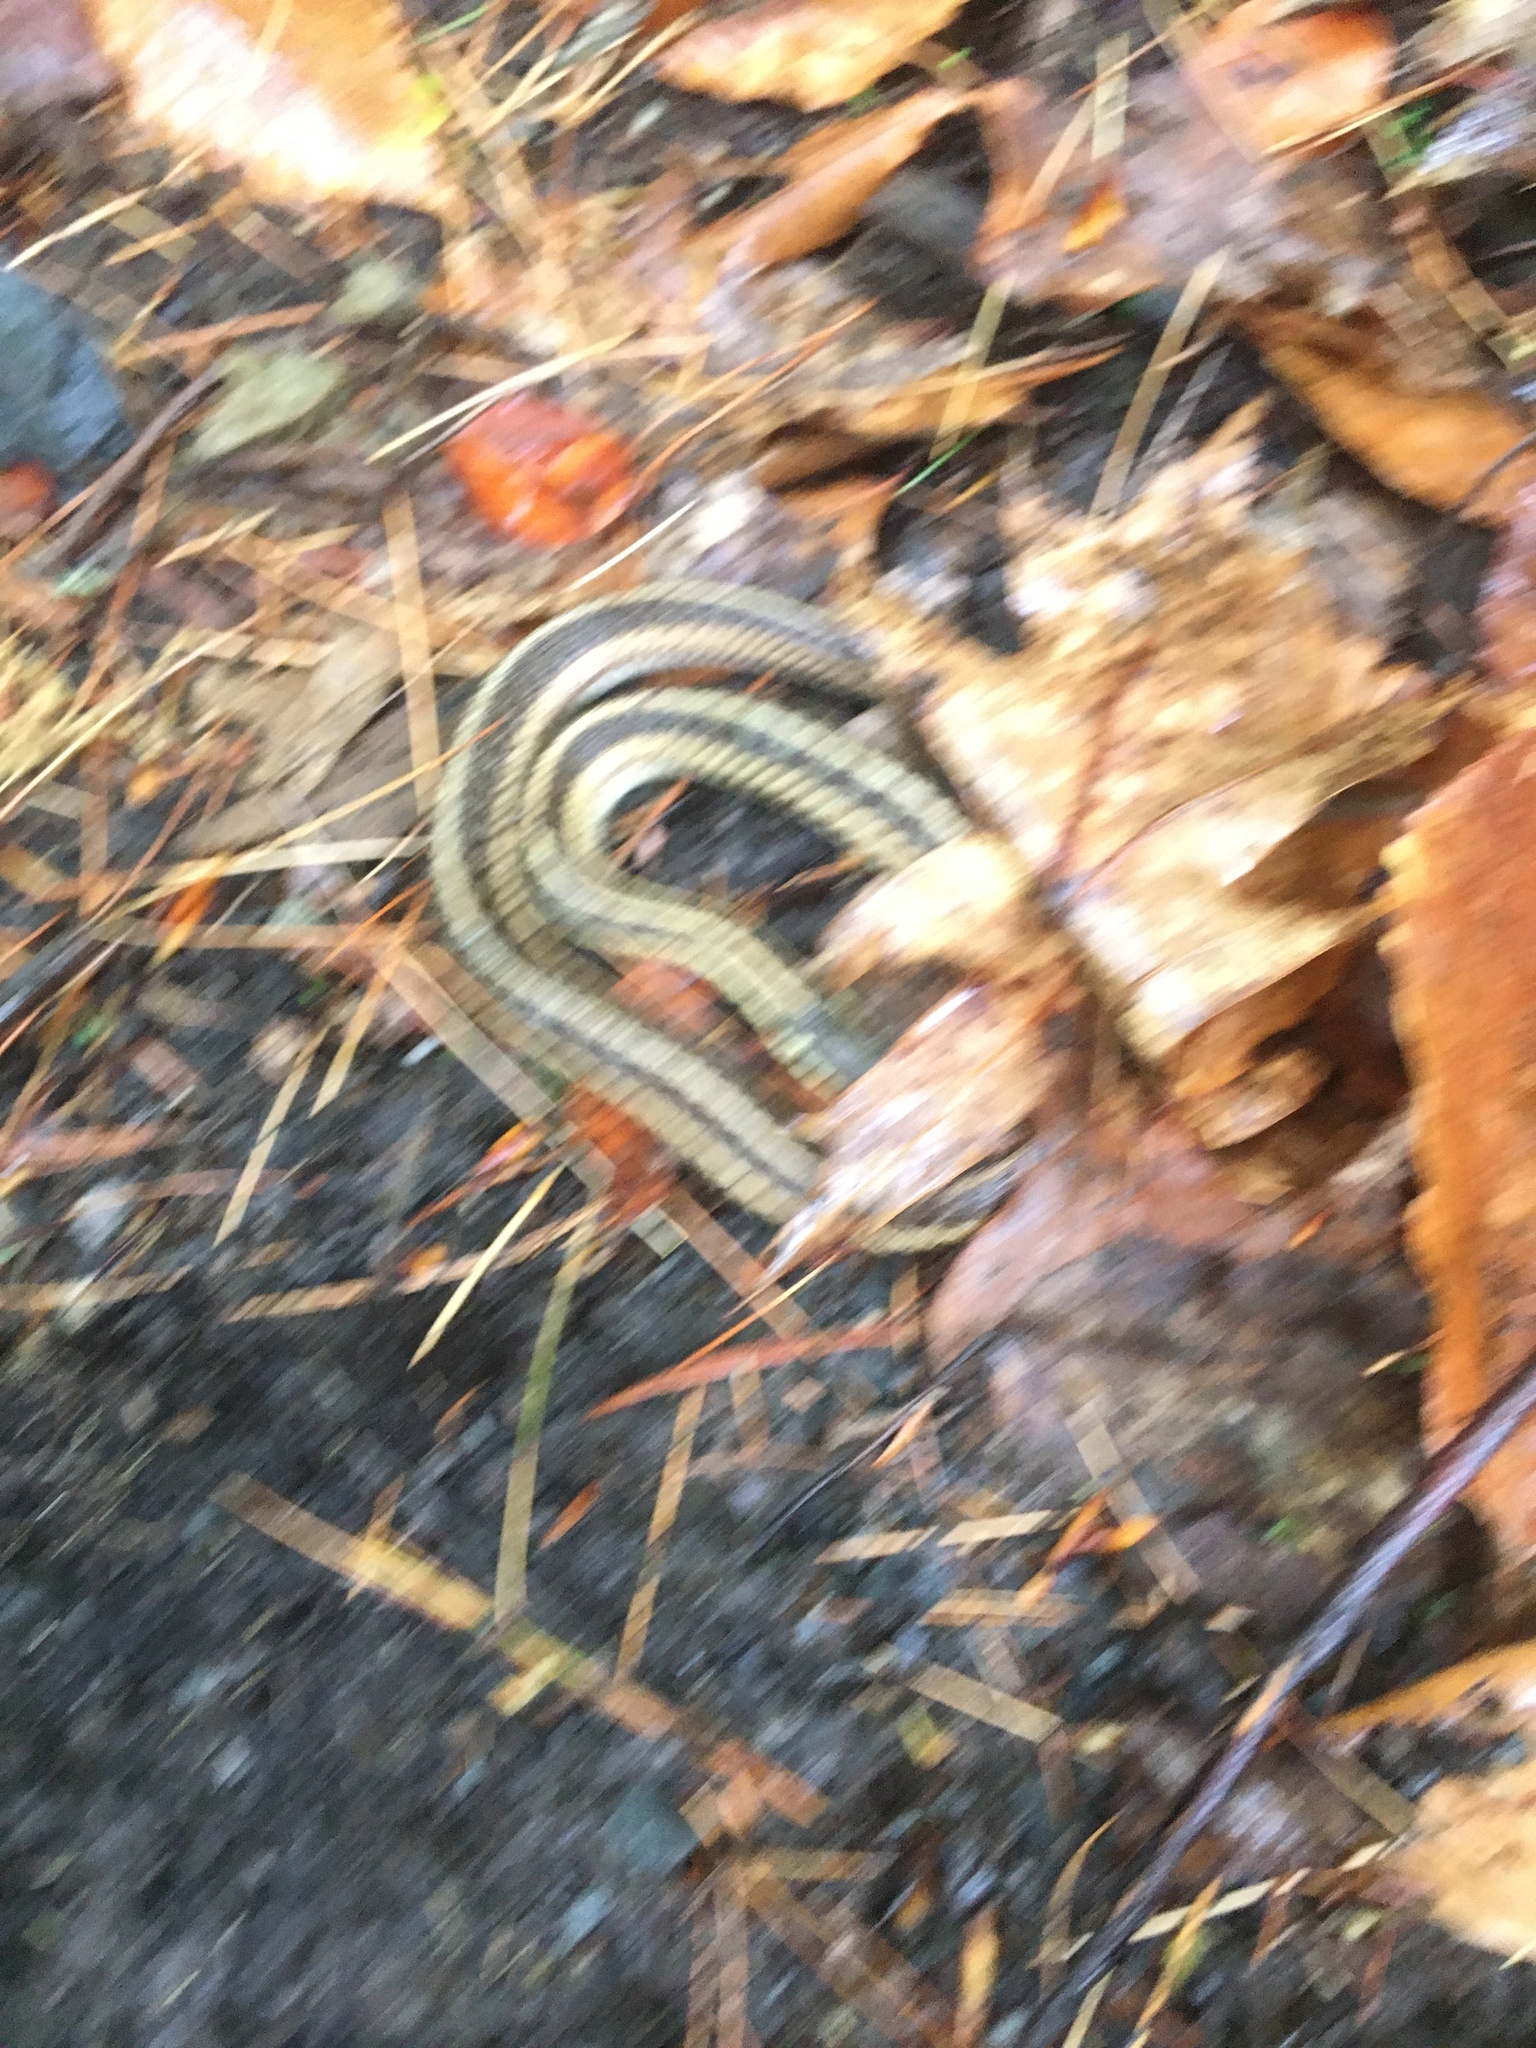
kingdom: Animalia
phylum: Chordata
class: Squamata
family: Colubridae
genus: Thamnophis
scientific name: Thamnophis sirtalis
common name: Common garter snake
